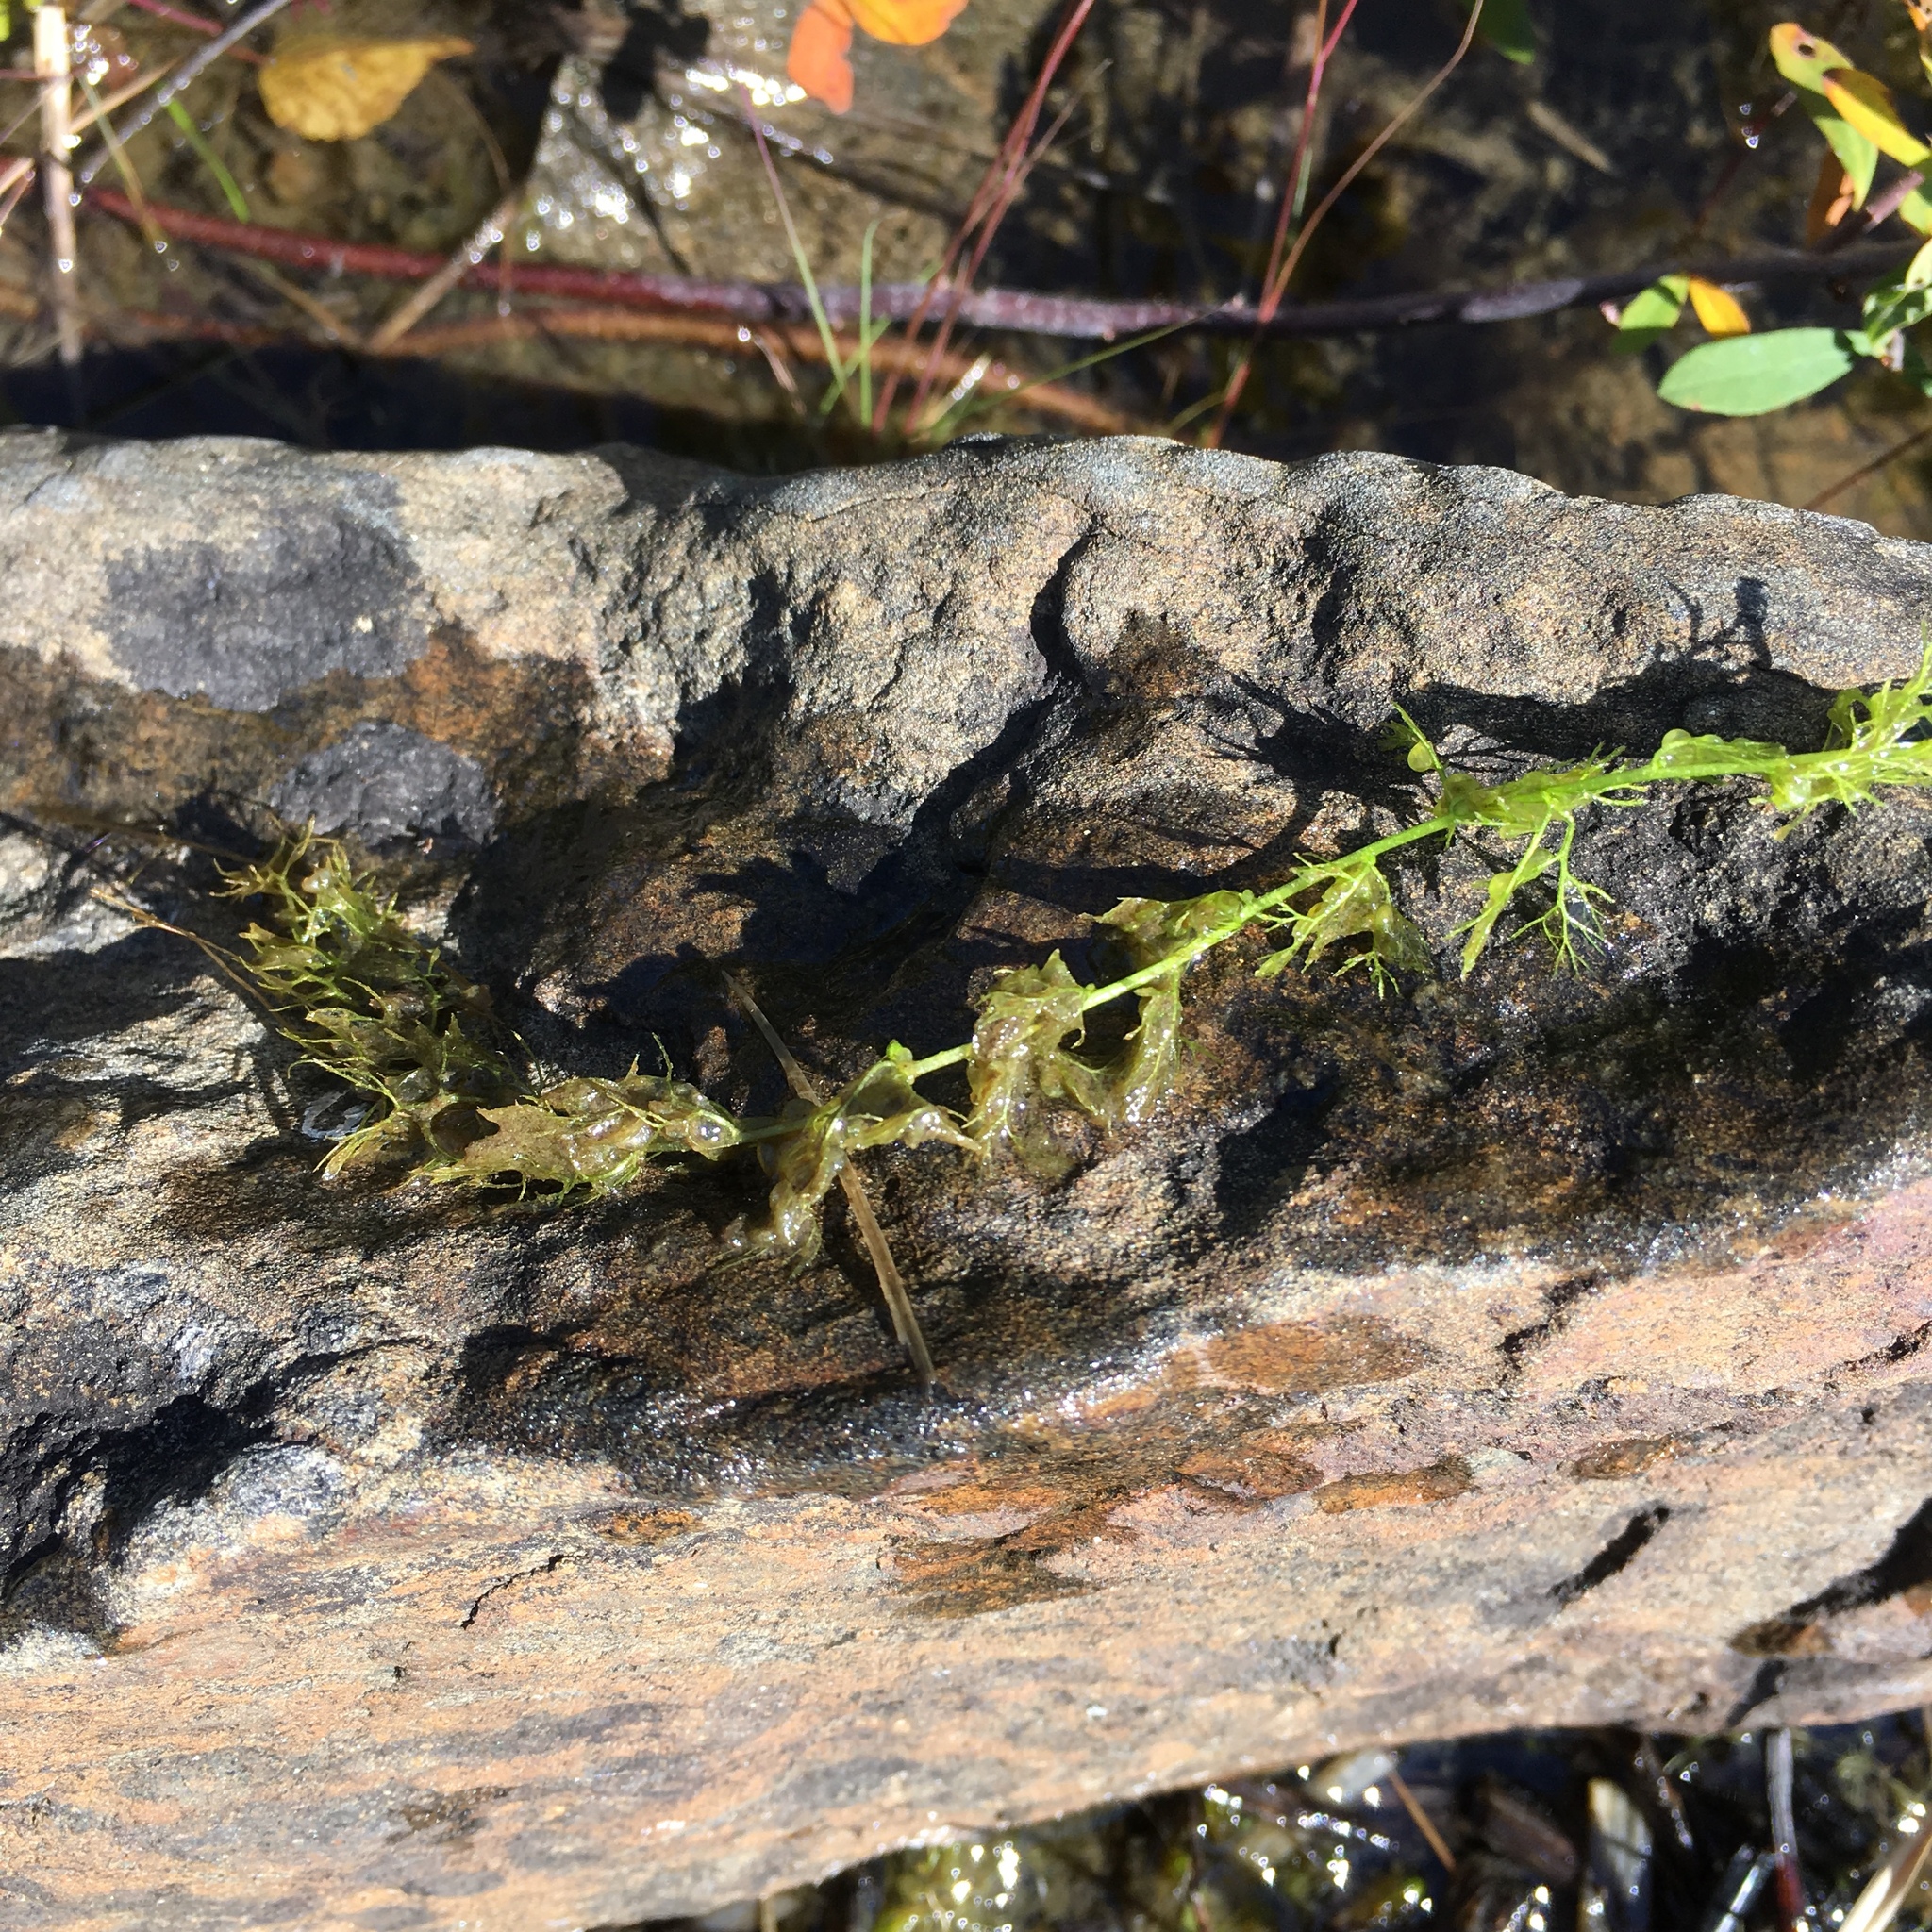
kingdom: Plantae
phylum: Tracheophyta
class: Magnoliopsida
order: Lamiales
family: Lentibulariaceae
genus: Utricularia
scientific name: Utricularia macrorhiza
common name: Common bladderwort
